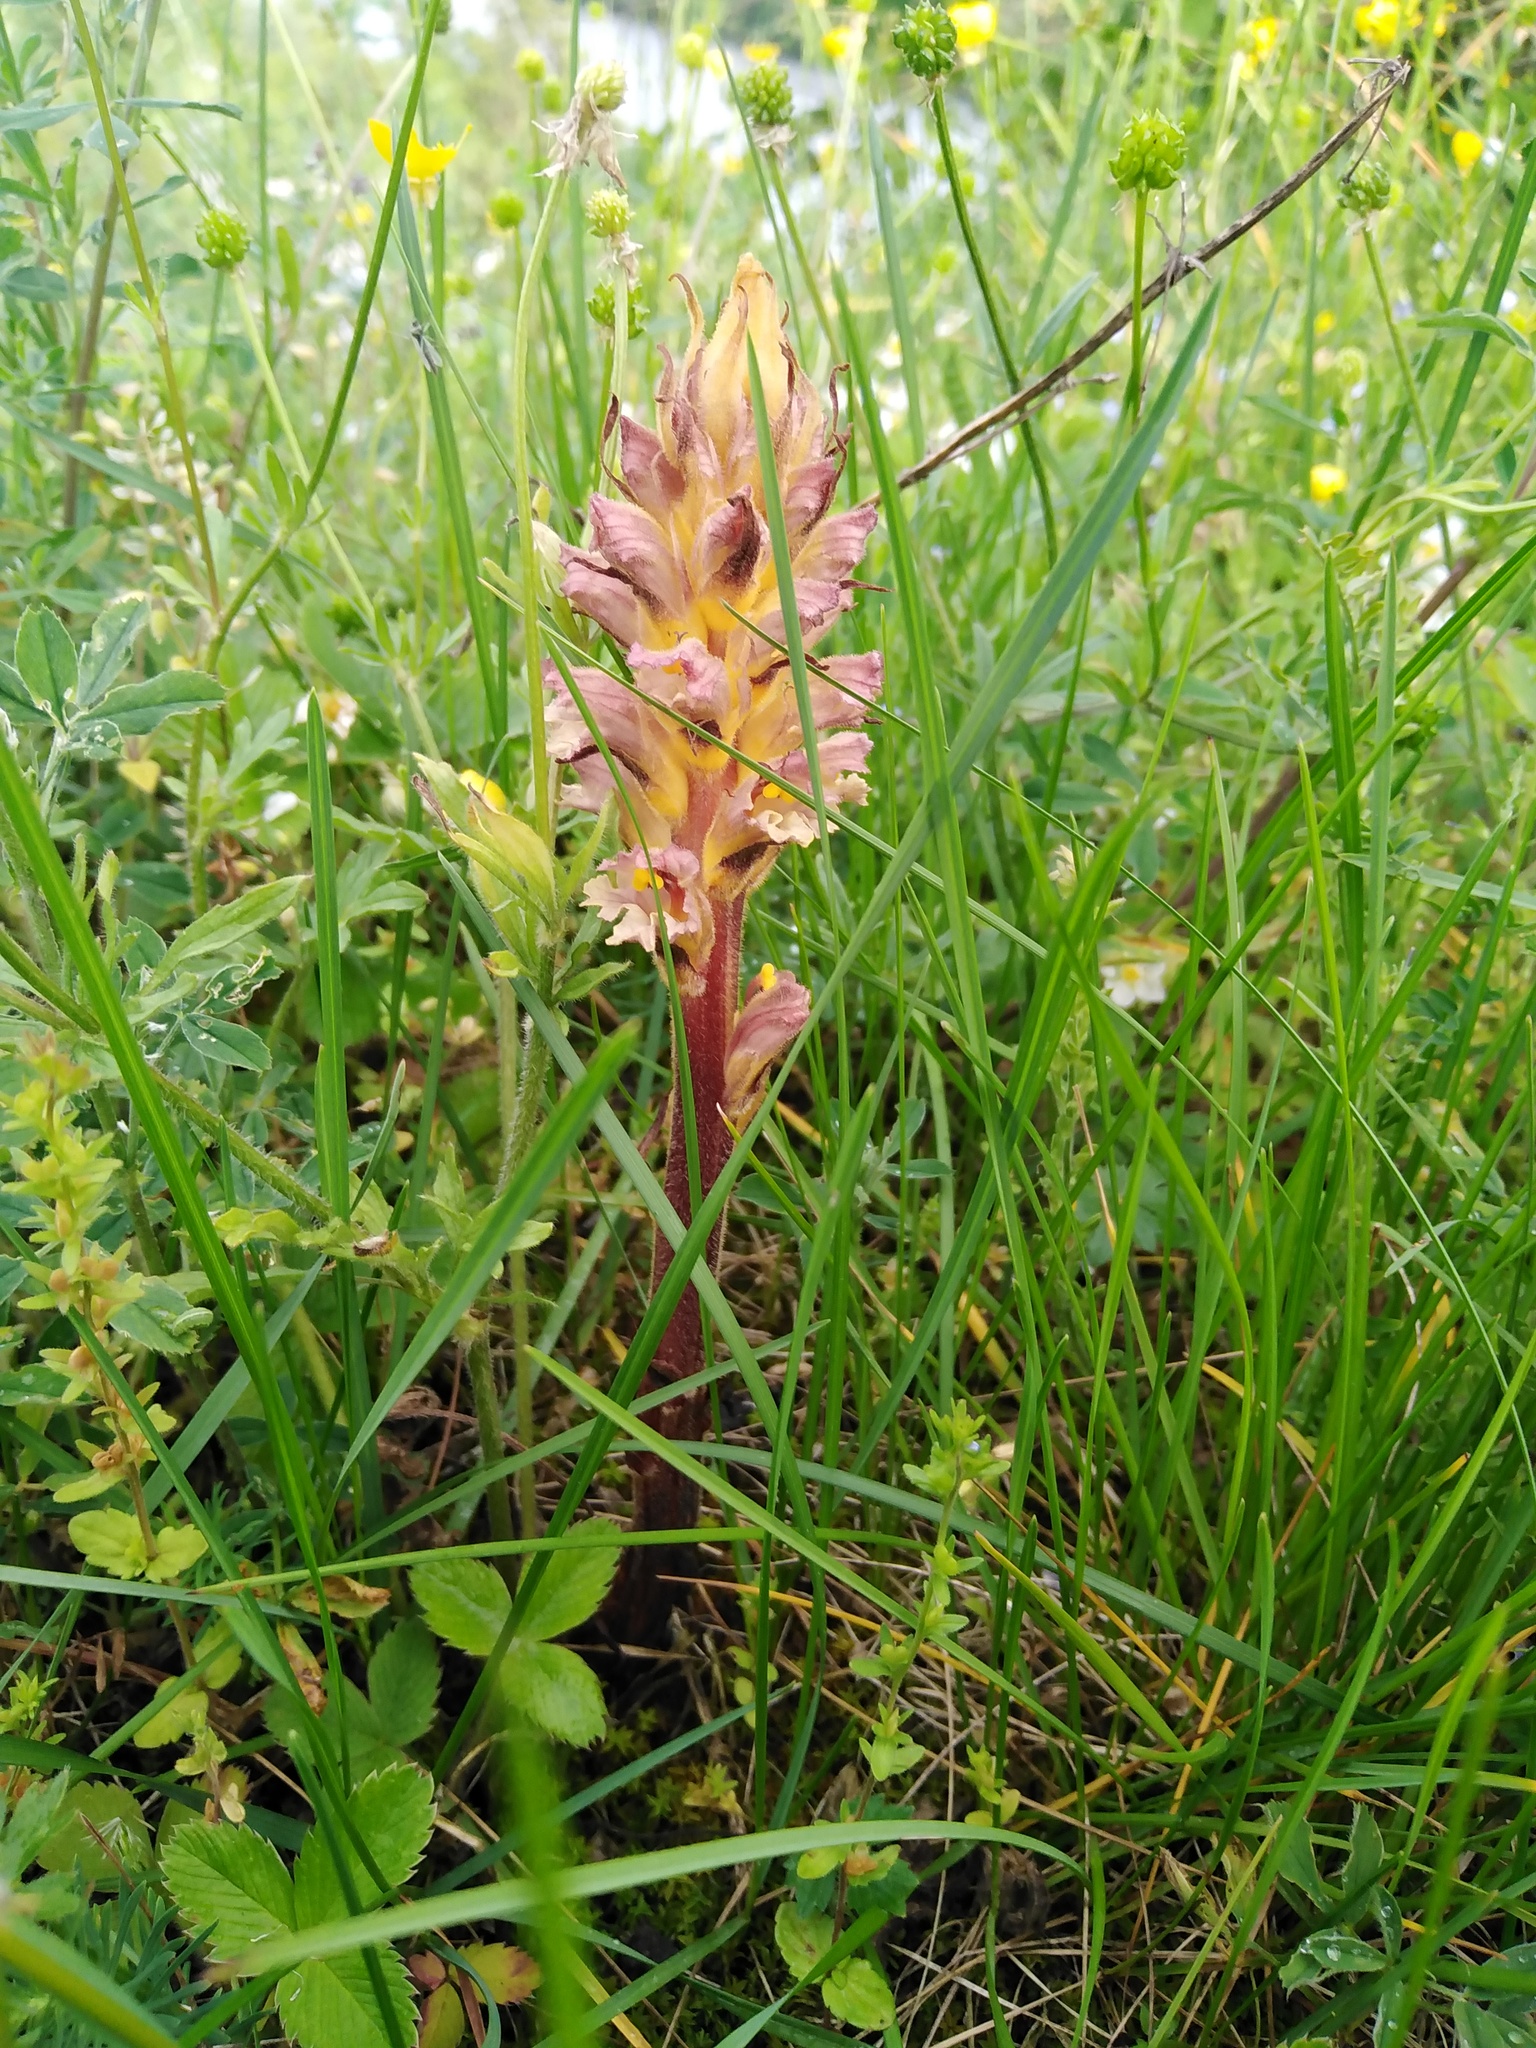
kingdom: Plantae
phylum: Tracheophyta
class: Magnoliopsida
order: Lamiales
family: Orobanchaceae
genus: Orobanche
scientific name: Orobanche lutea
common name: Yellow broomrape
